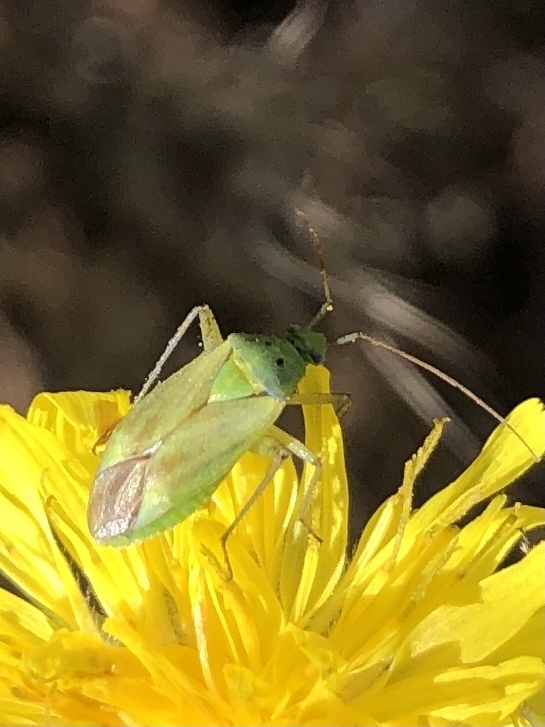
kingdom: Animalia
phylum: Arthropoda
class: Insecta
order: Hemiptera
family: Miridae
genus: Closterotomus
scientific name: Closterotomus norvegicus
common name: Plant bug
